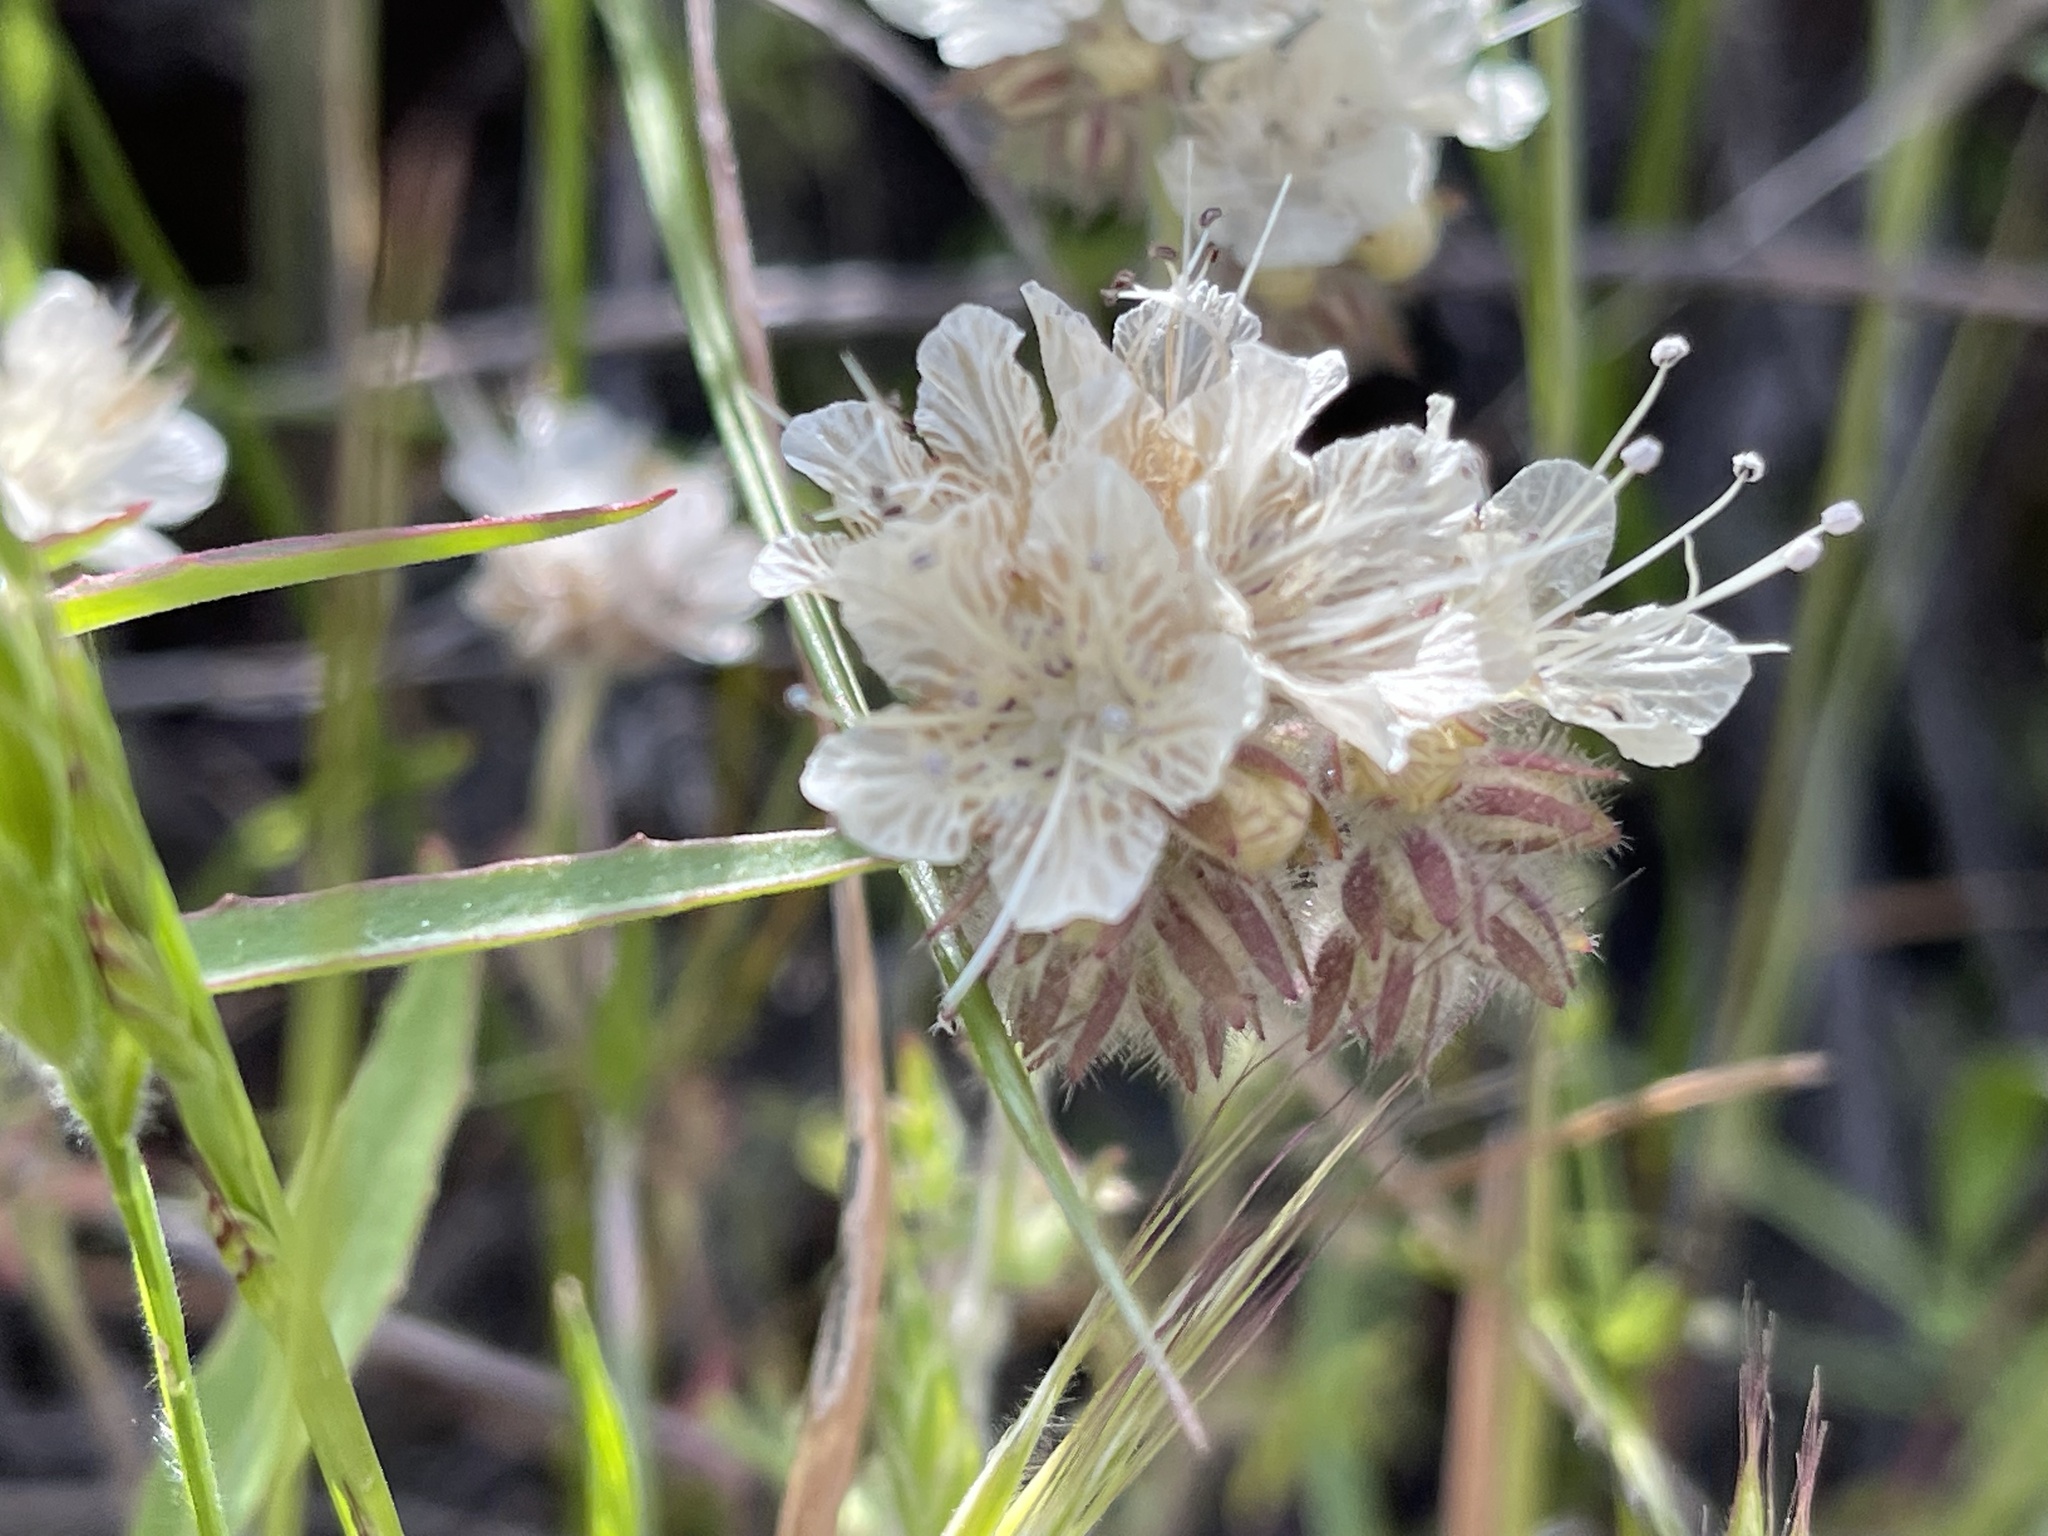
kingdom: Plantae
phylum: Tracheophyta
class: Magnoliopsida
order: Boraginales
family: Hydrophyllaceae
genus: Phacelia
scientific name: Phacelia distans
